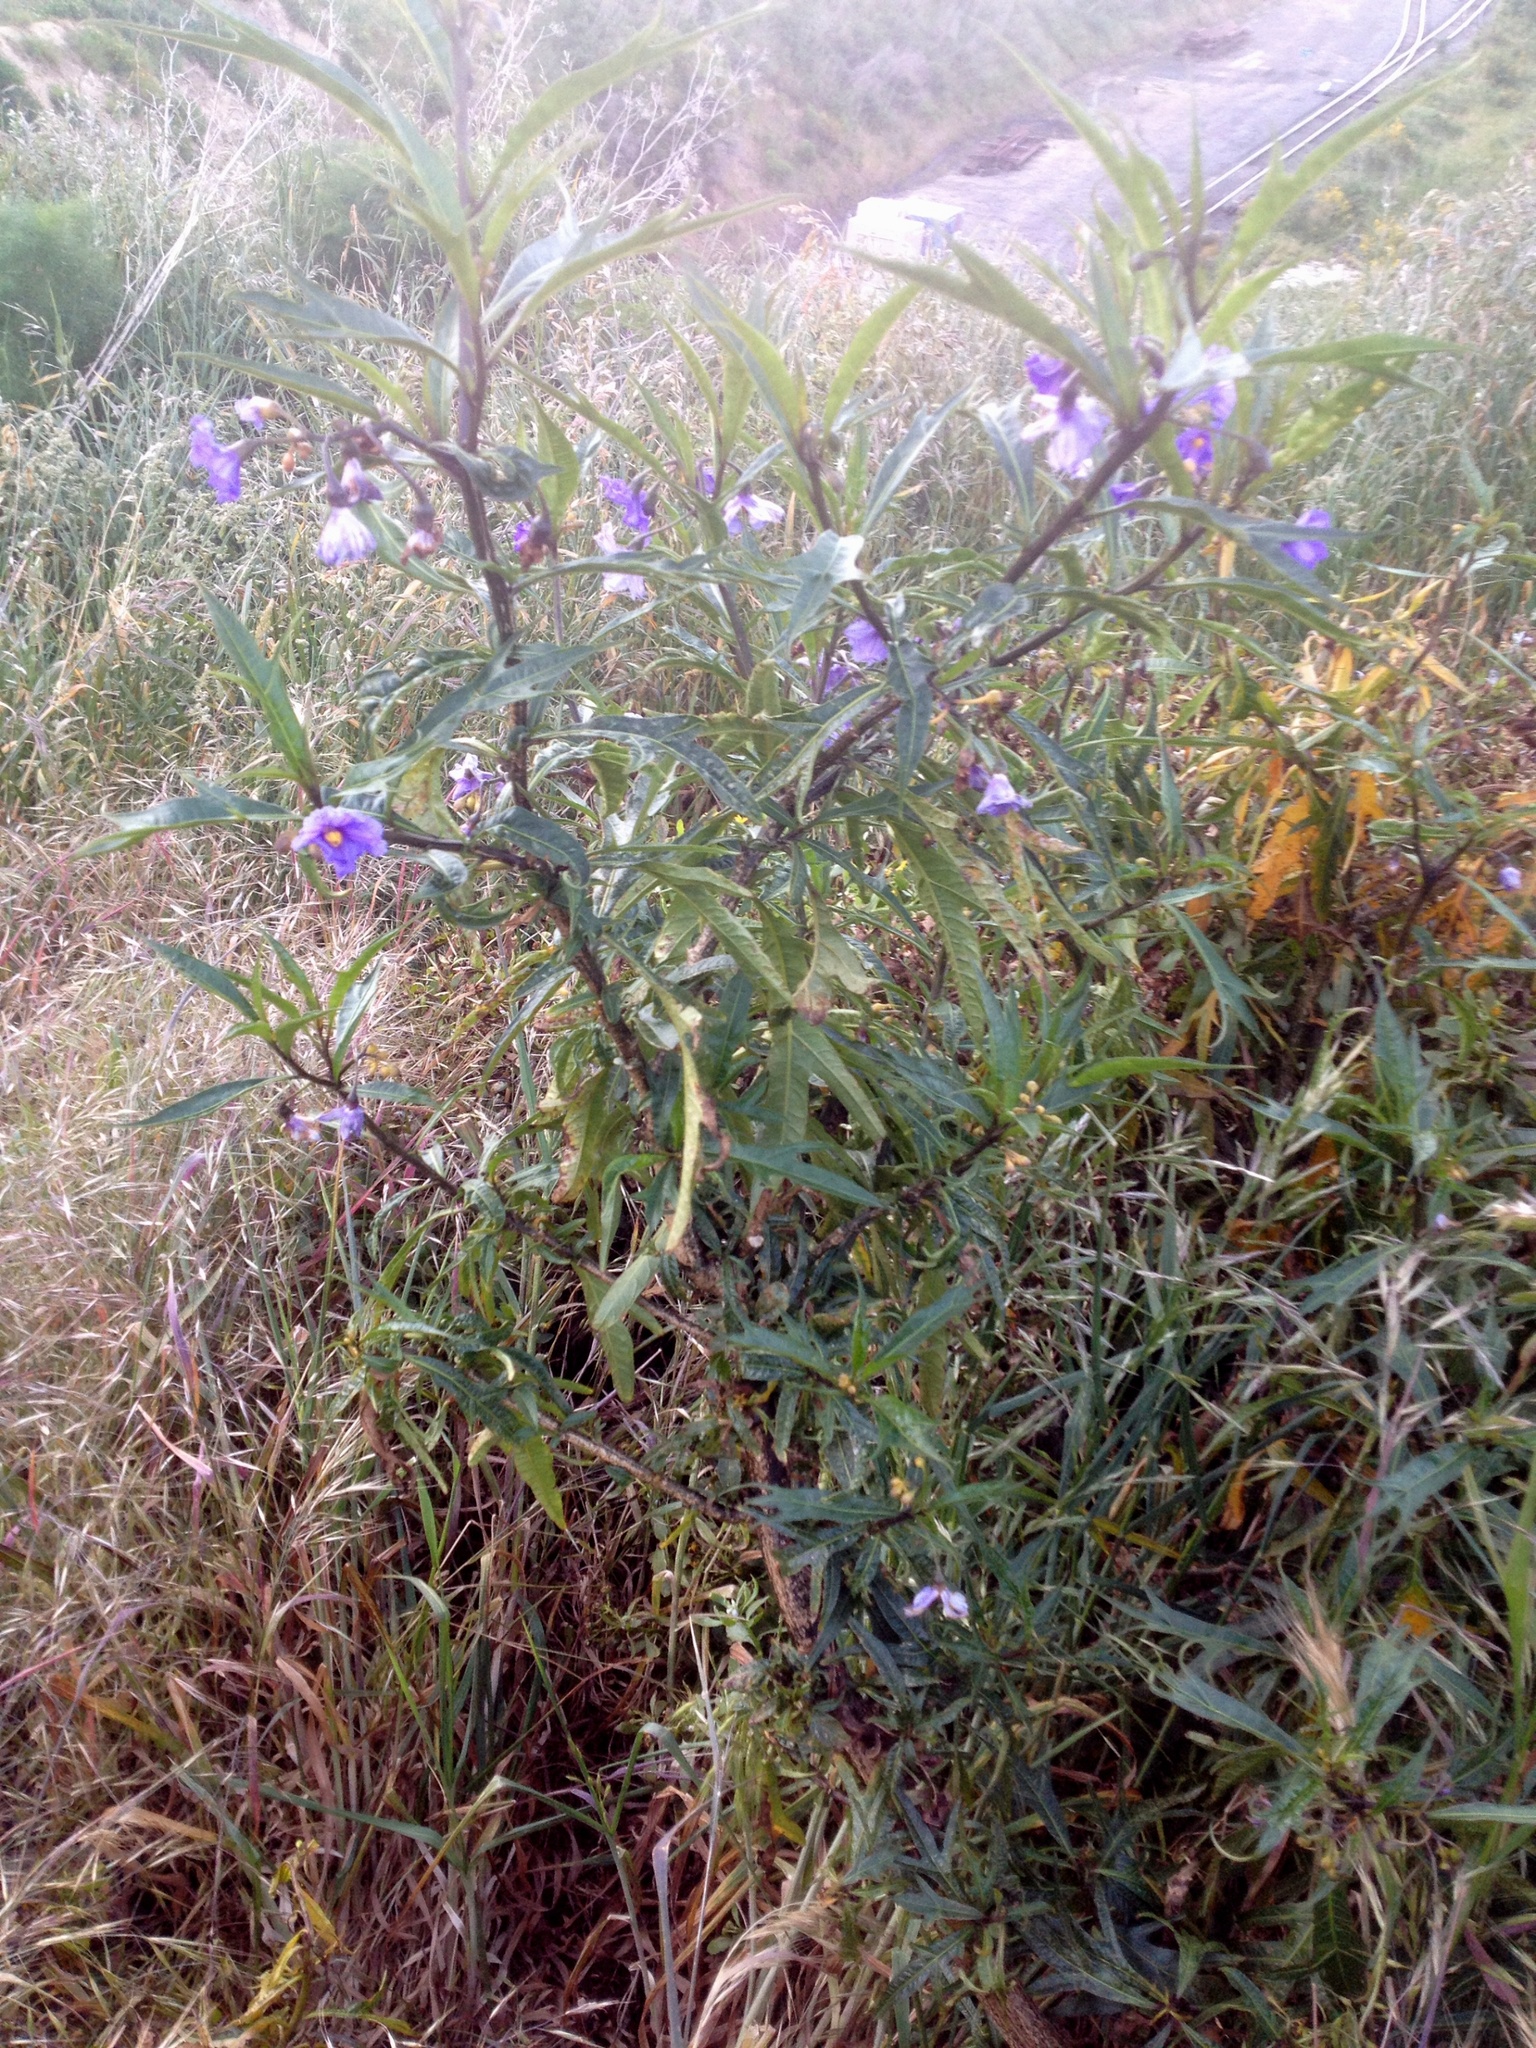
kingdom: Plantae
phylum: Tracheophyta
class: Magnoliopsida
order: Solanales
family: Solanaceae
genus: Solanum
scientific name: Solanum laciniatum
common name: Kangaroo-apple
